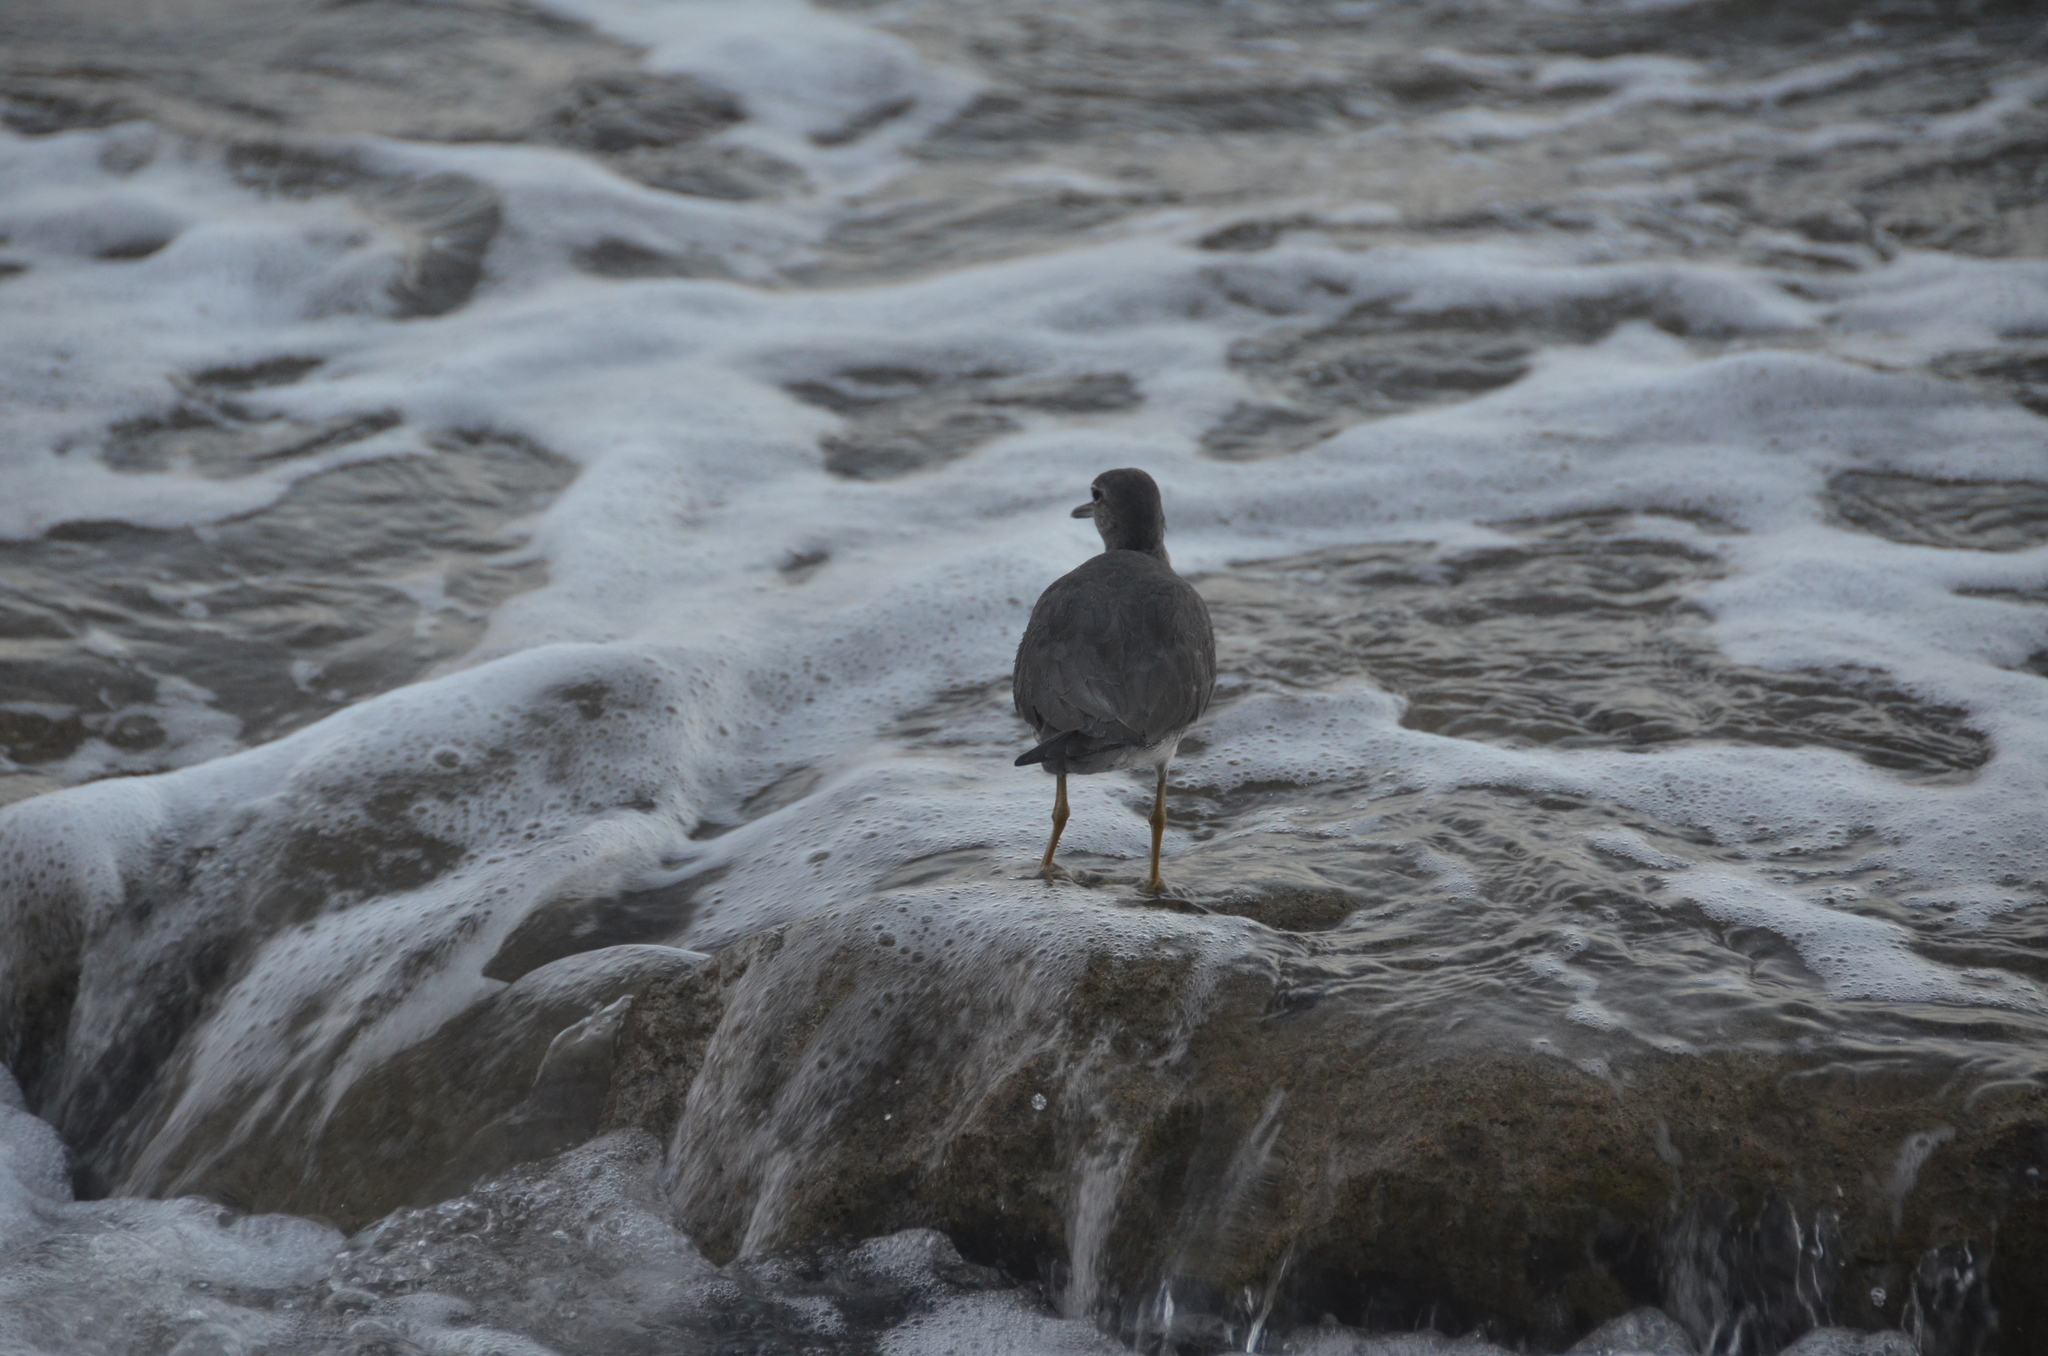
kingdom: Animalia
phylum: Chordata
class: Aves
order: Charadriiformes
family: Scolopacidae
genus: Tringa
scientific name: Tringa incana
